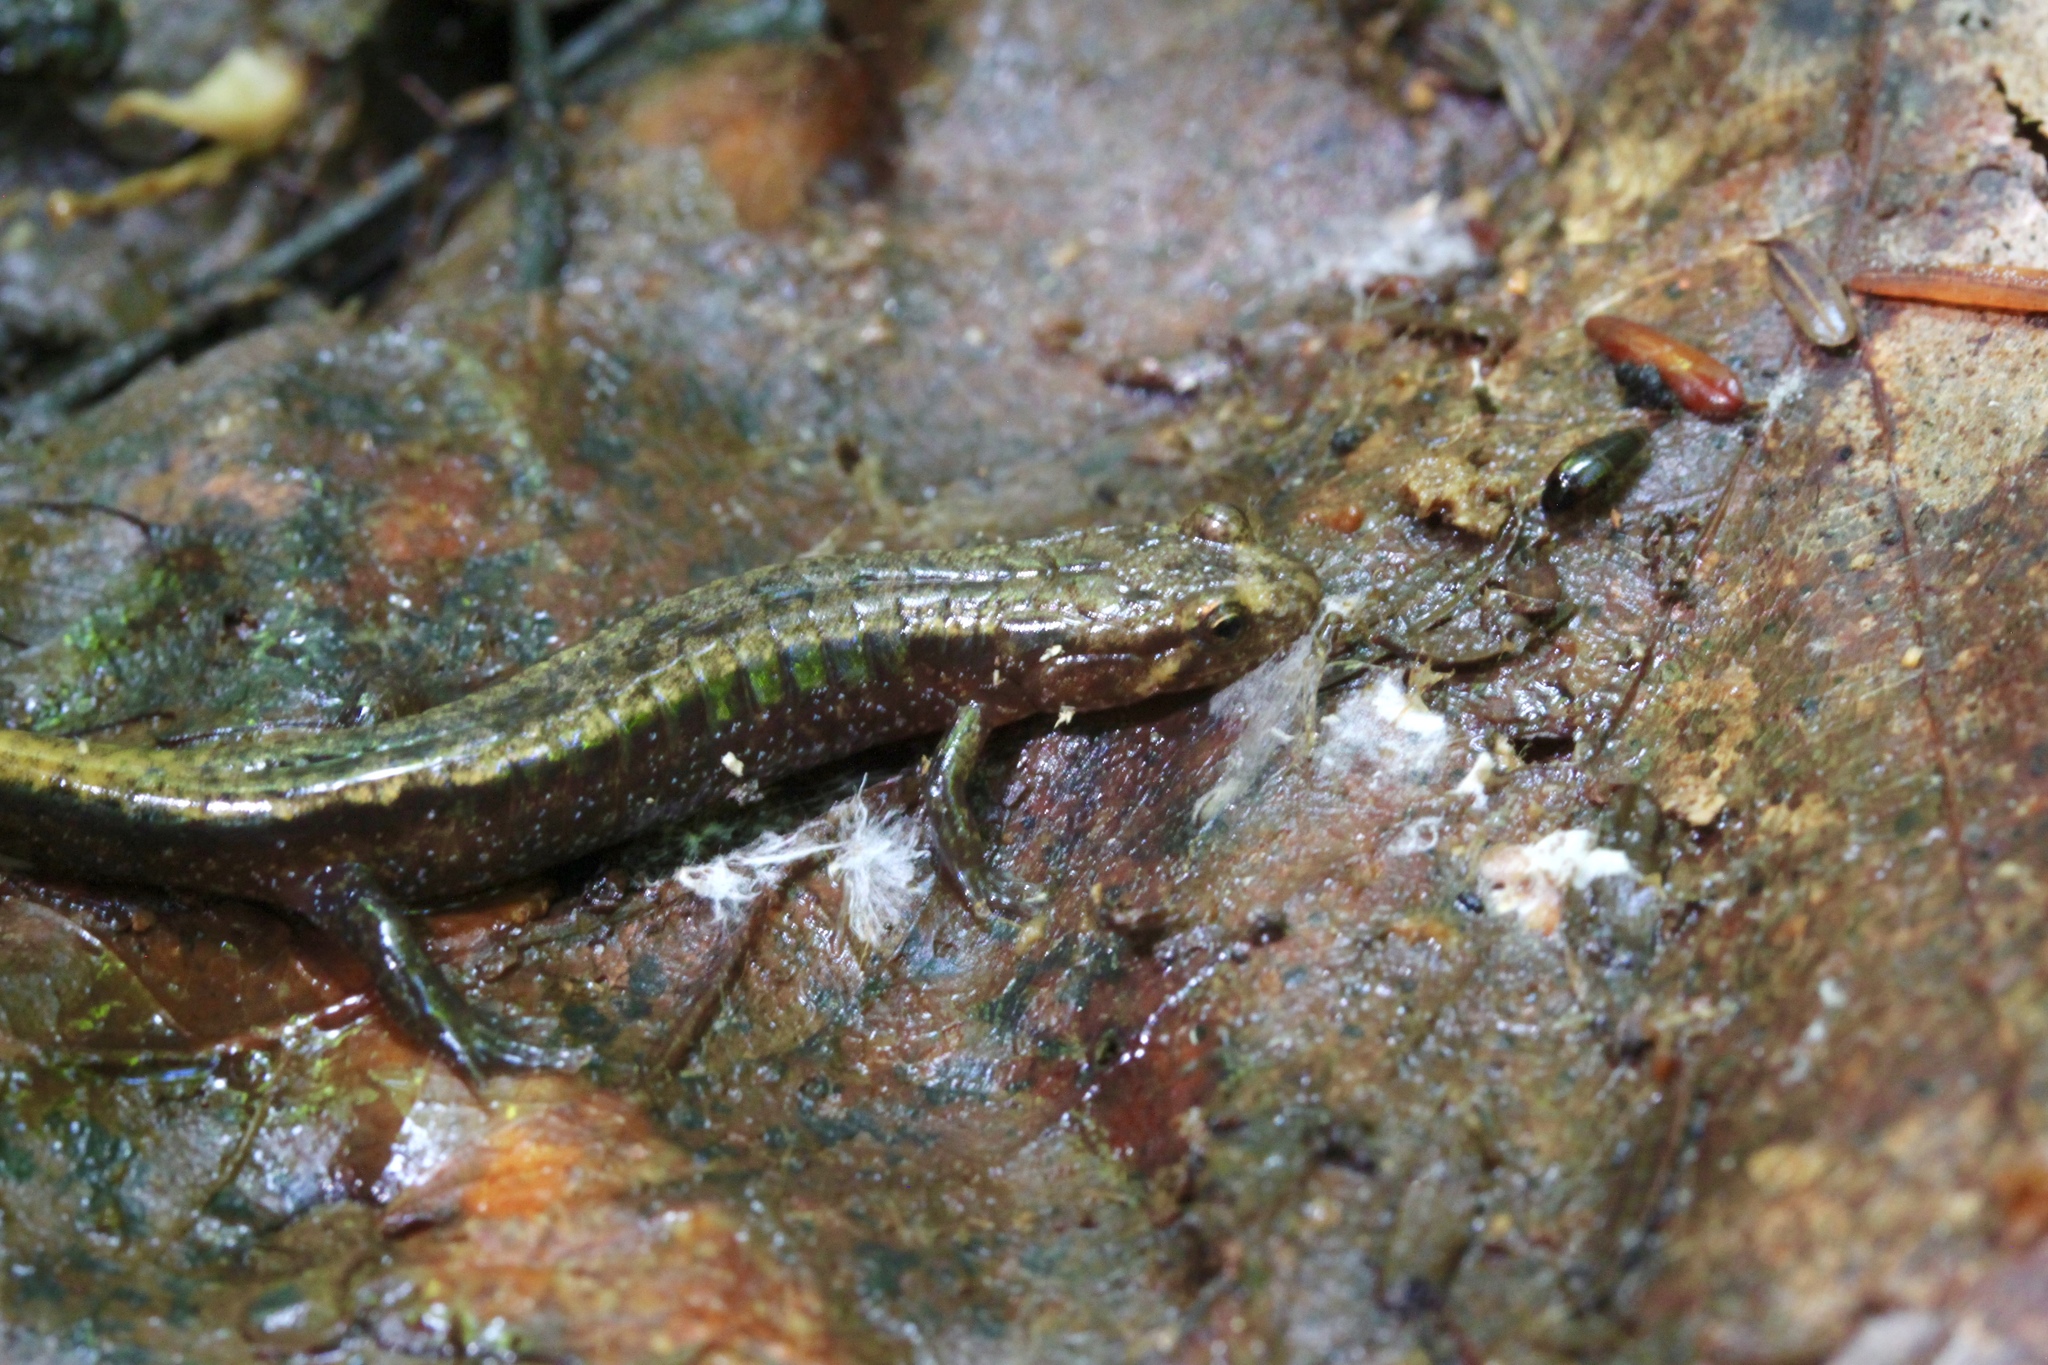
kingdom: Animalia
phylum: Chordata
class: Amphibia
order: Caudata
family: Plethodontidae
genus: Desmognathus
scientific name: Desmognathus ochrophaeus
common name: Allegheny mountain dusky salamander
